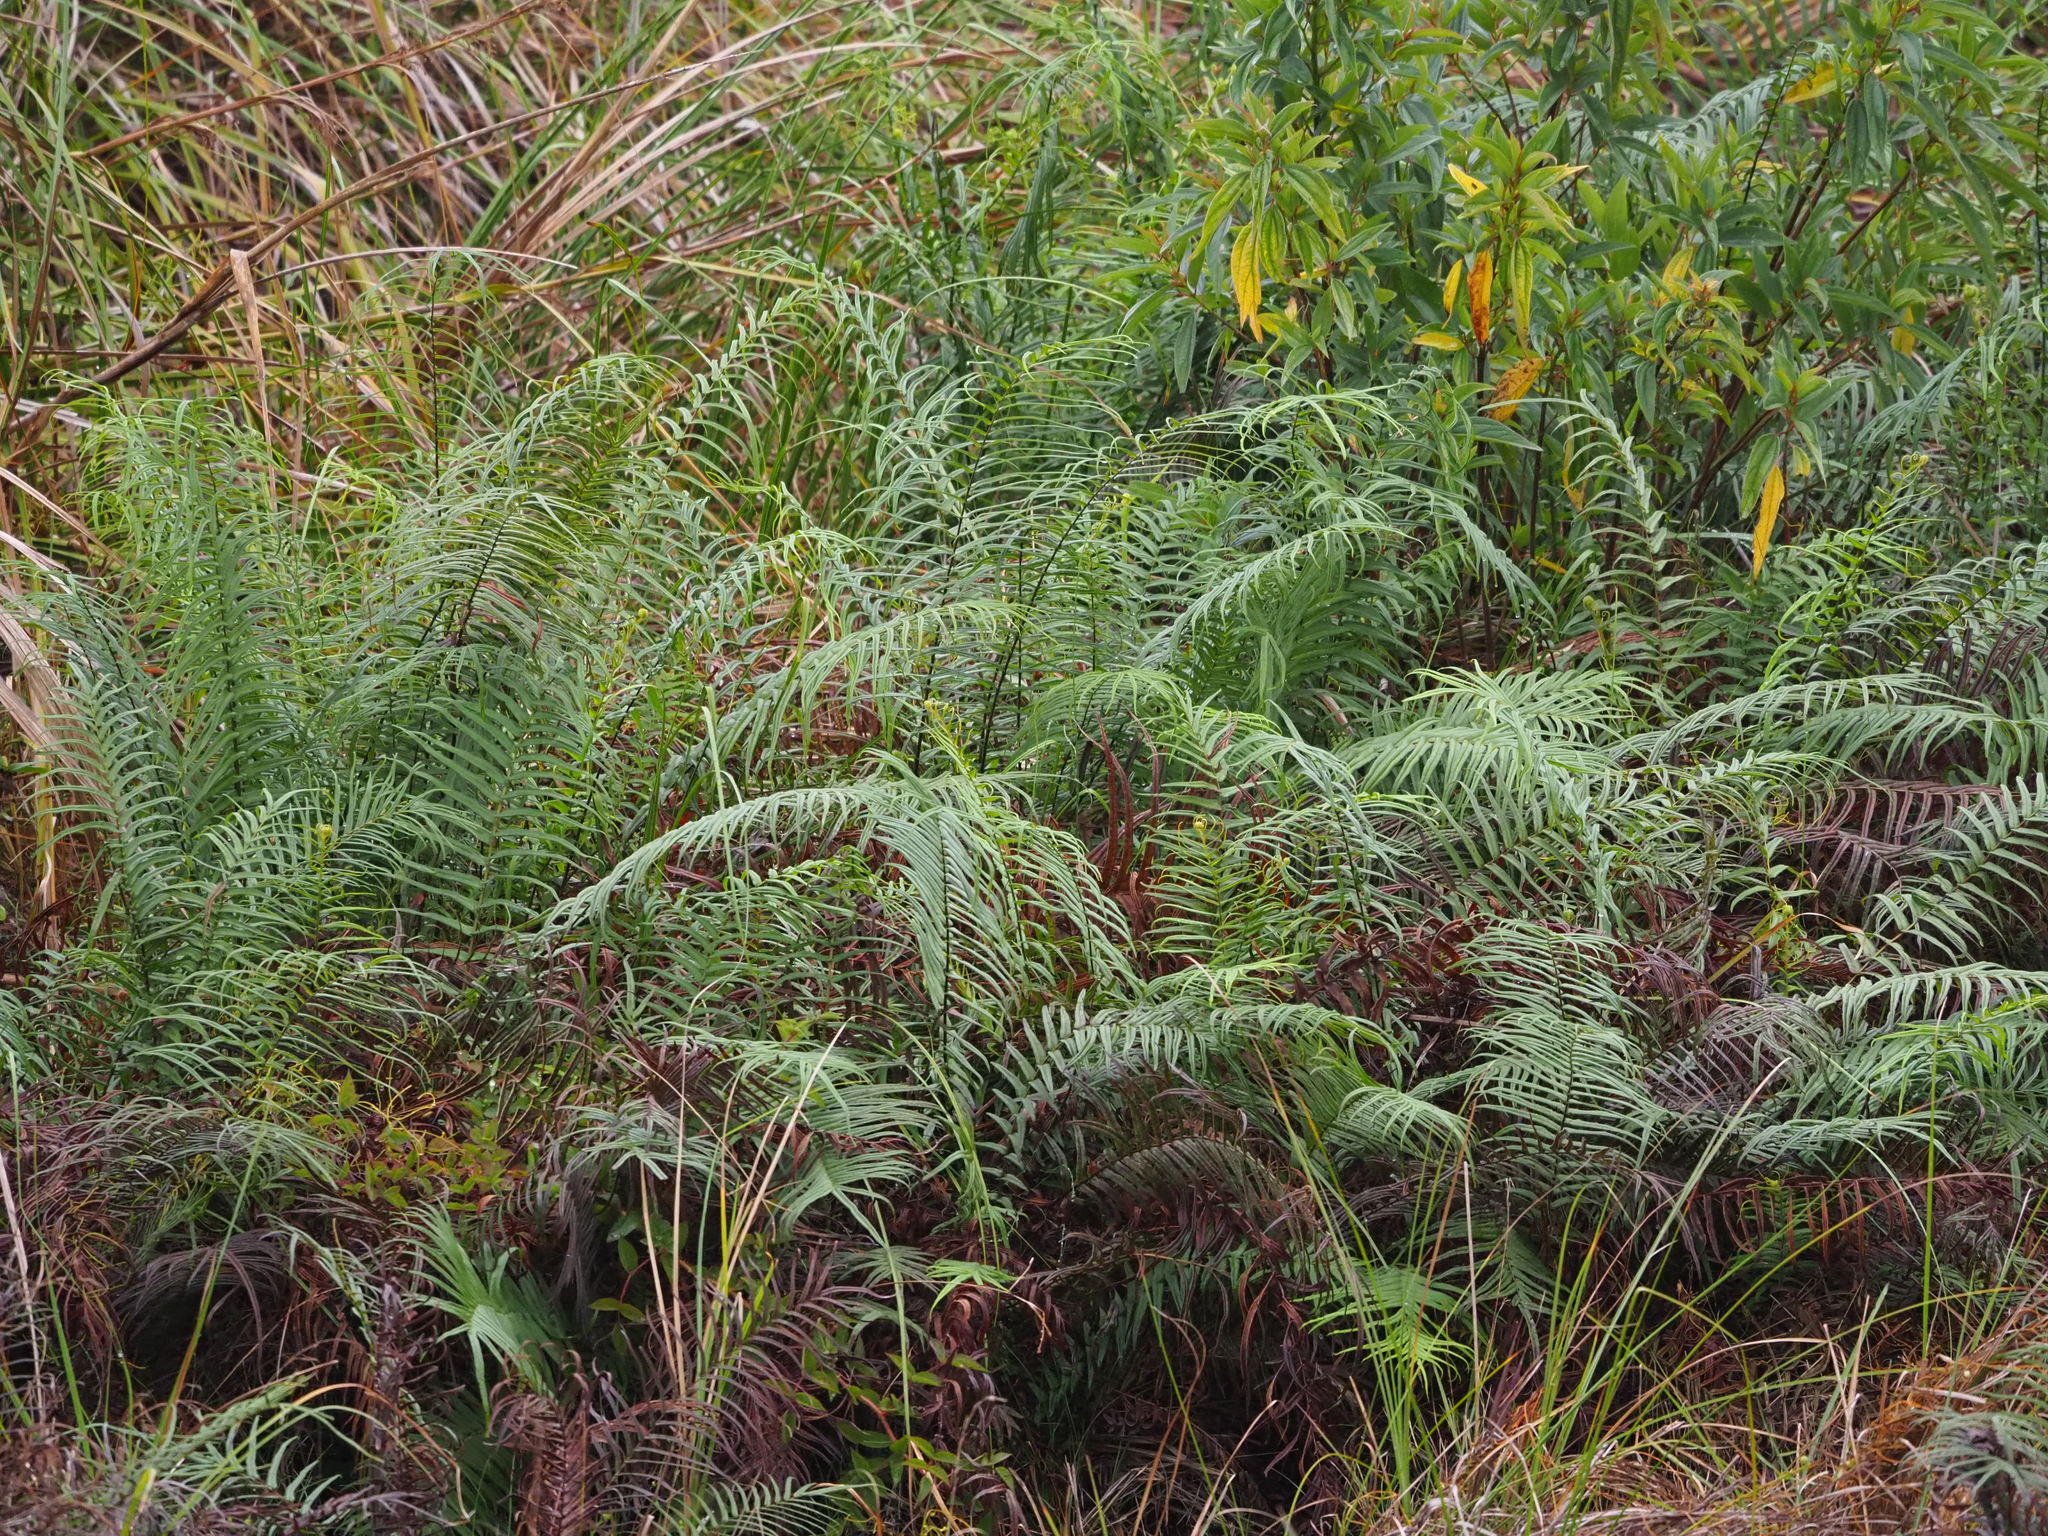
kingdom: Plantae
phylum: Tracheophyta
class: Polypodiopsida
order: Polypodiales
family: Pteridaceae
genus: Pteris
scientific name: Pteris vittata
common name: Ladder brake
